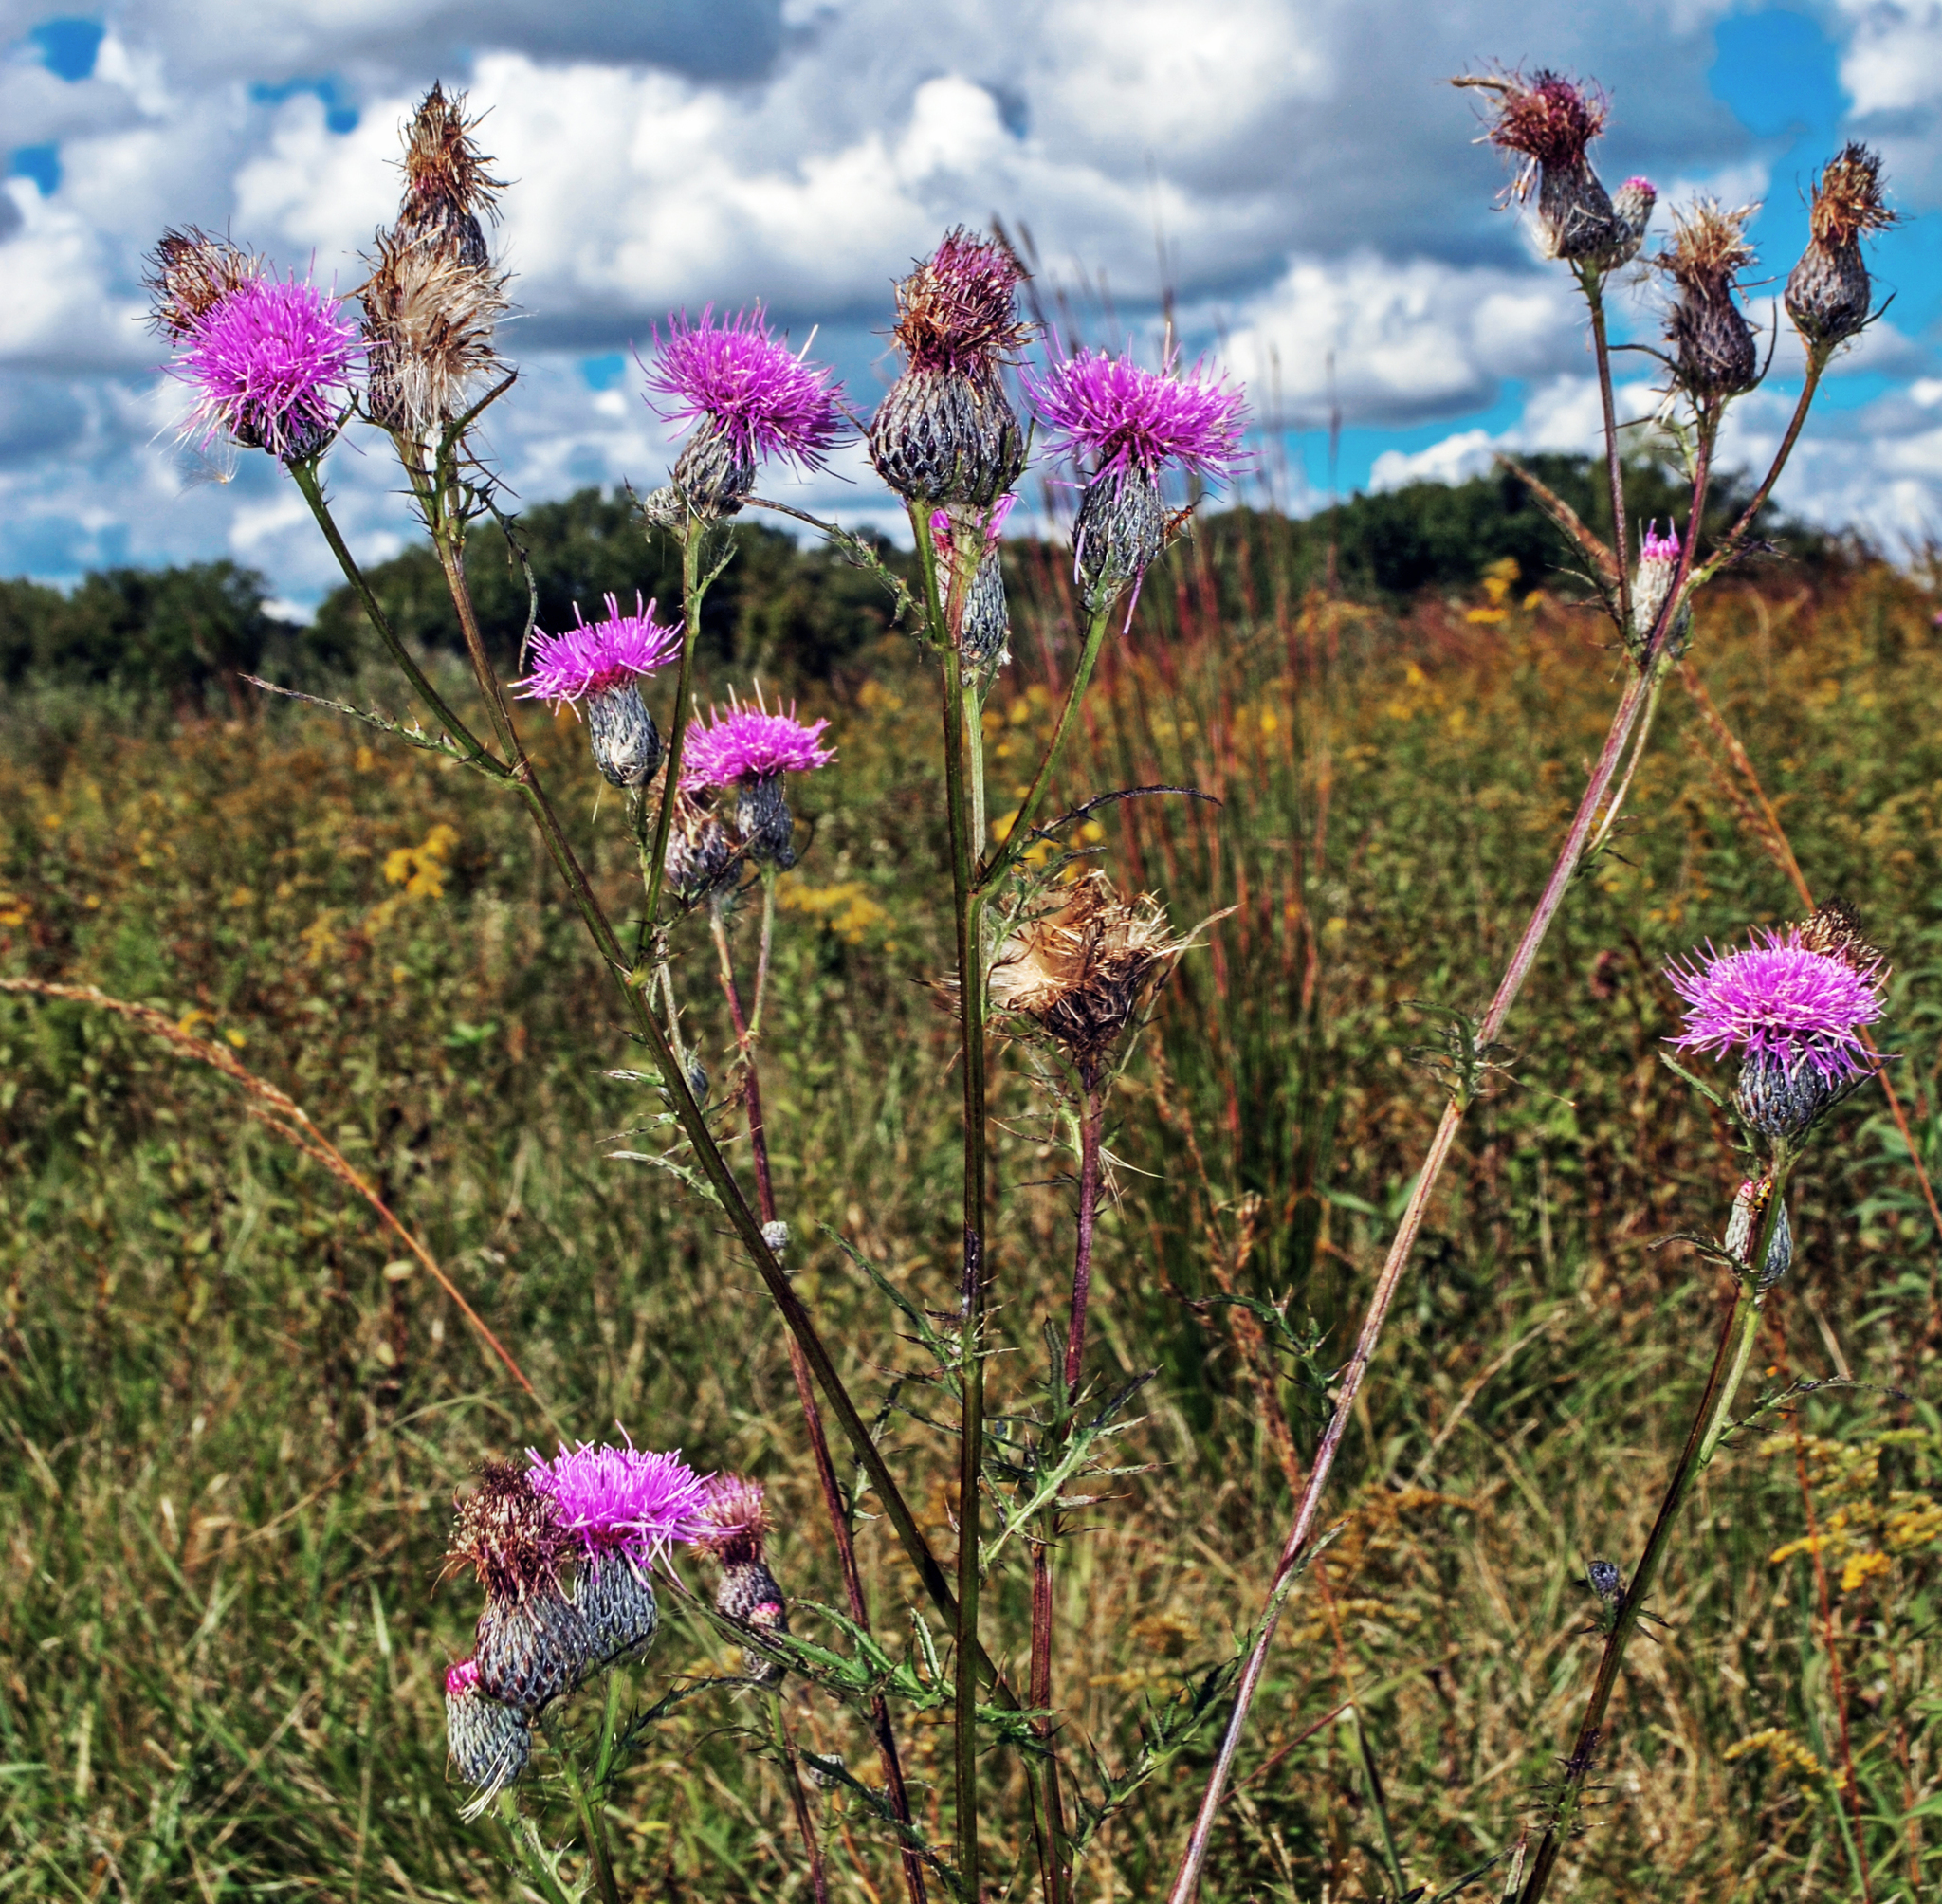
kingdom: Plantae
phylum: Tracheophyta
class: Magnoliopsida
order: Asterales
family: Asteraceae
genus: Cirsium
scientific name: Cirsium muticum
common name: Dunce-nettle
